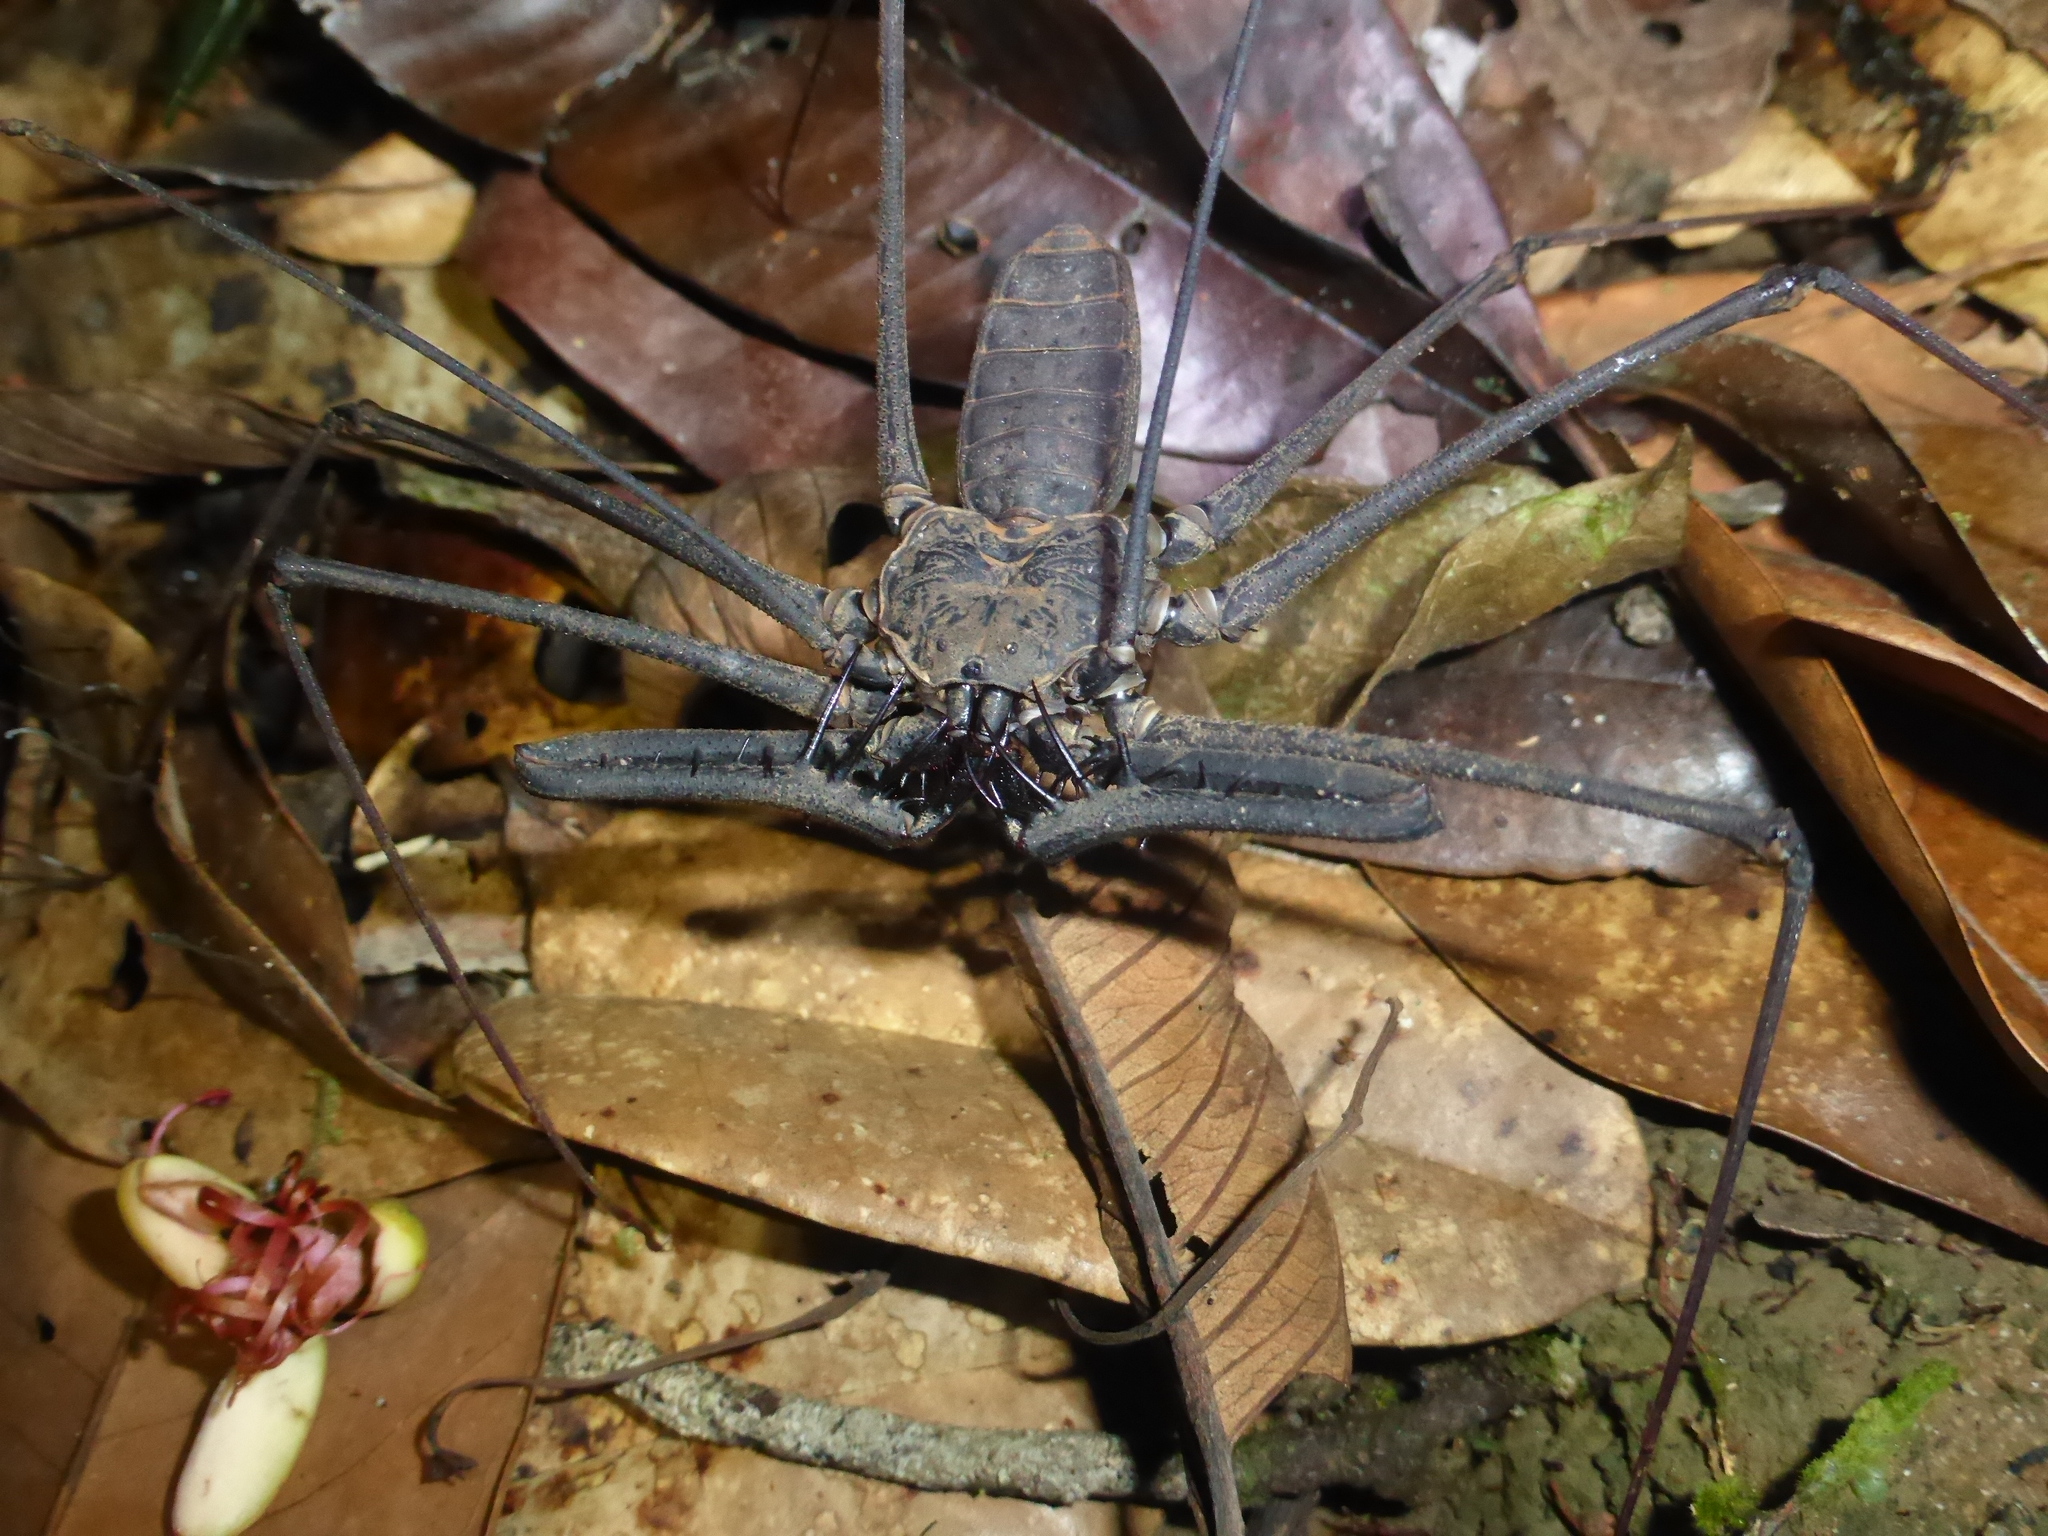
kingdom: Animalia
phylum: Arthropoda
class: Arachnida
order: Amblypygi
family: Phrynidae
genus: Heterophrynus
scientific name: Heterophrynus longicornis
